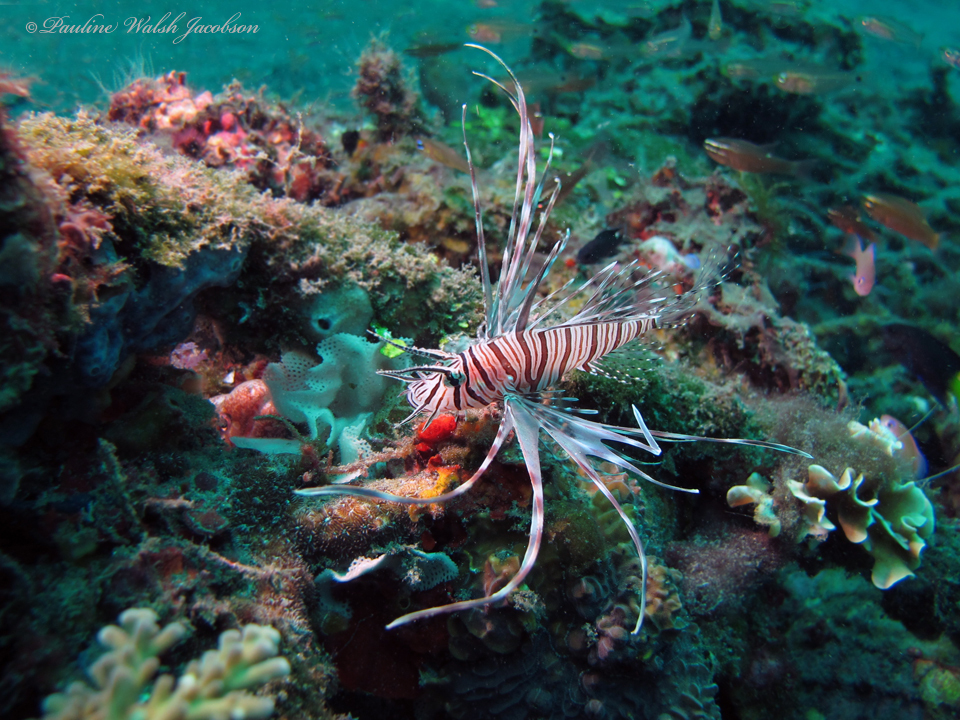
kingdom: Animalia
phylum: Chordata
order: Scorpaeniformes
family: Scorpaenidae
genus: Pterois
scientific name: Pterois volitans
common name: Lionfish
